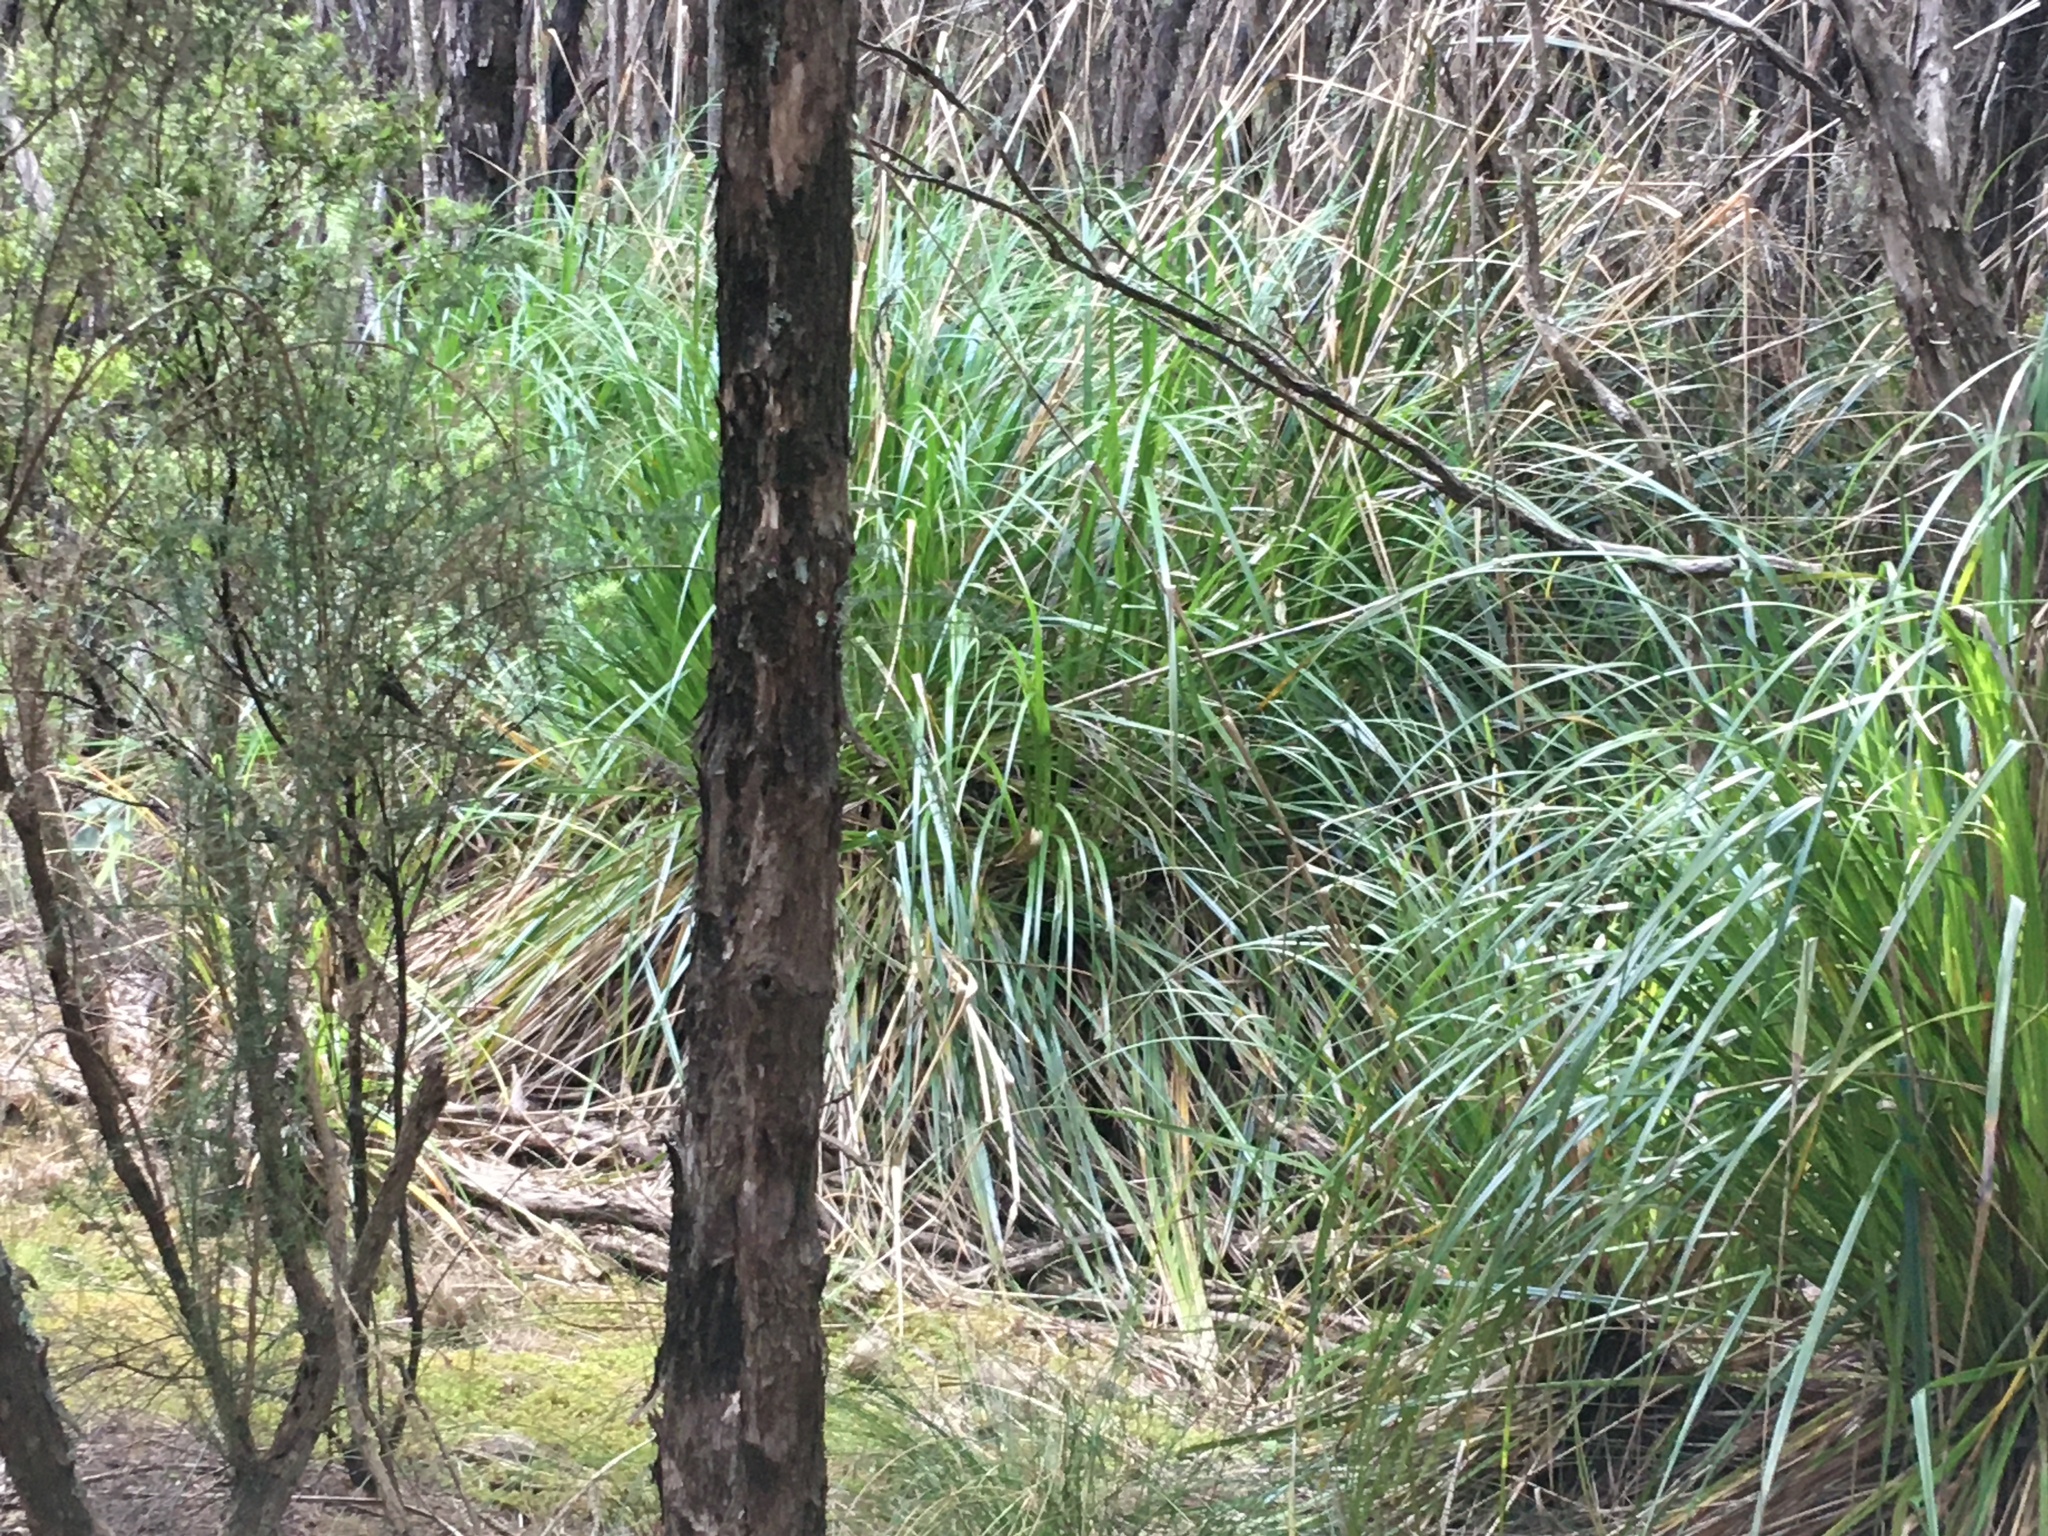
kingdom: Plantae
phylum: Tracheophyta
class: Liliopsida
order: Poales
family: Cyperaceae
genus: Gahnia
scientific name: Gahnia xanthocarpa
